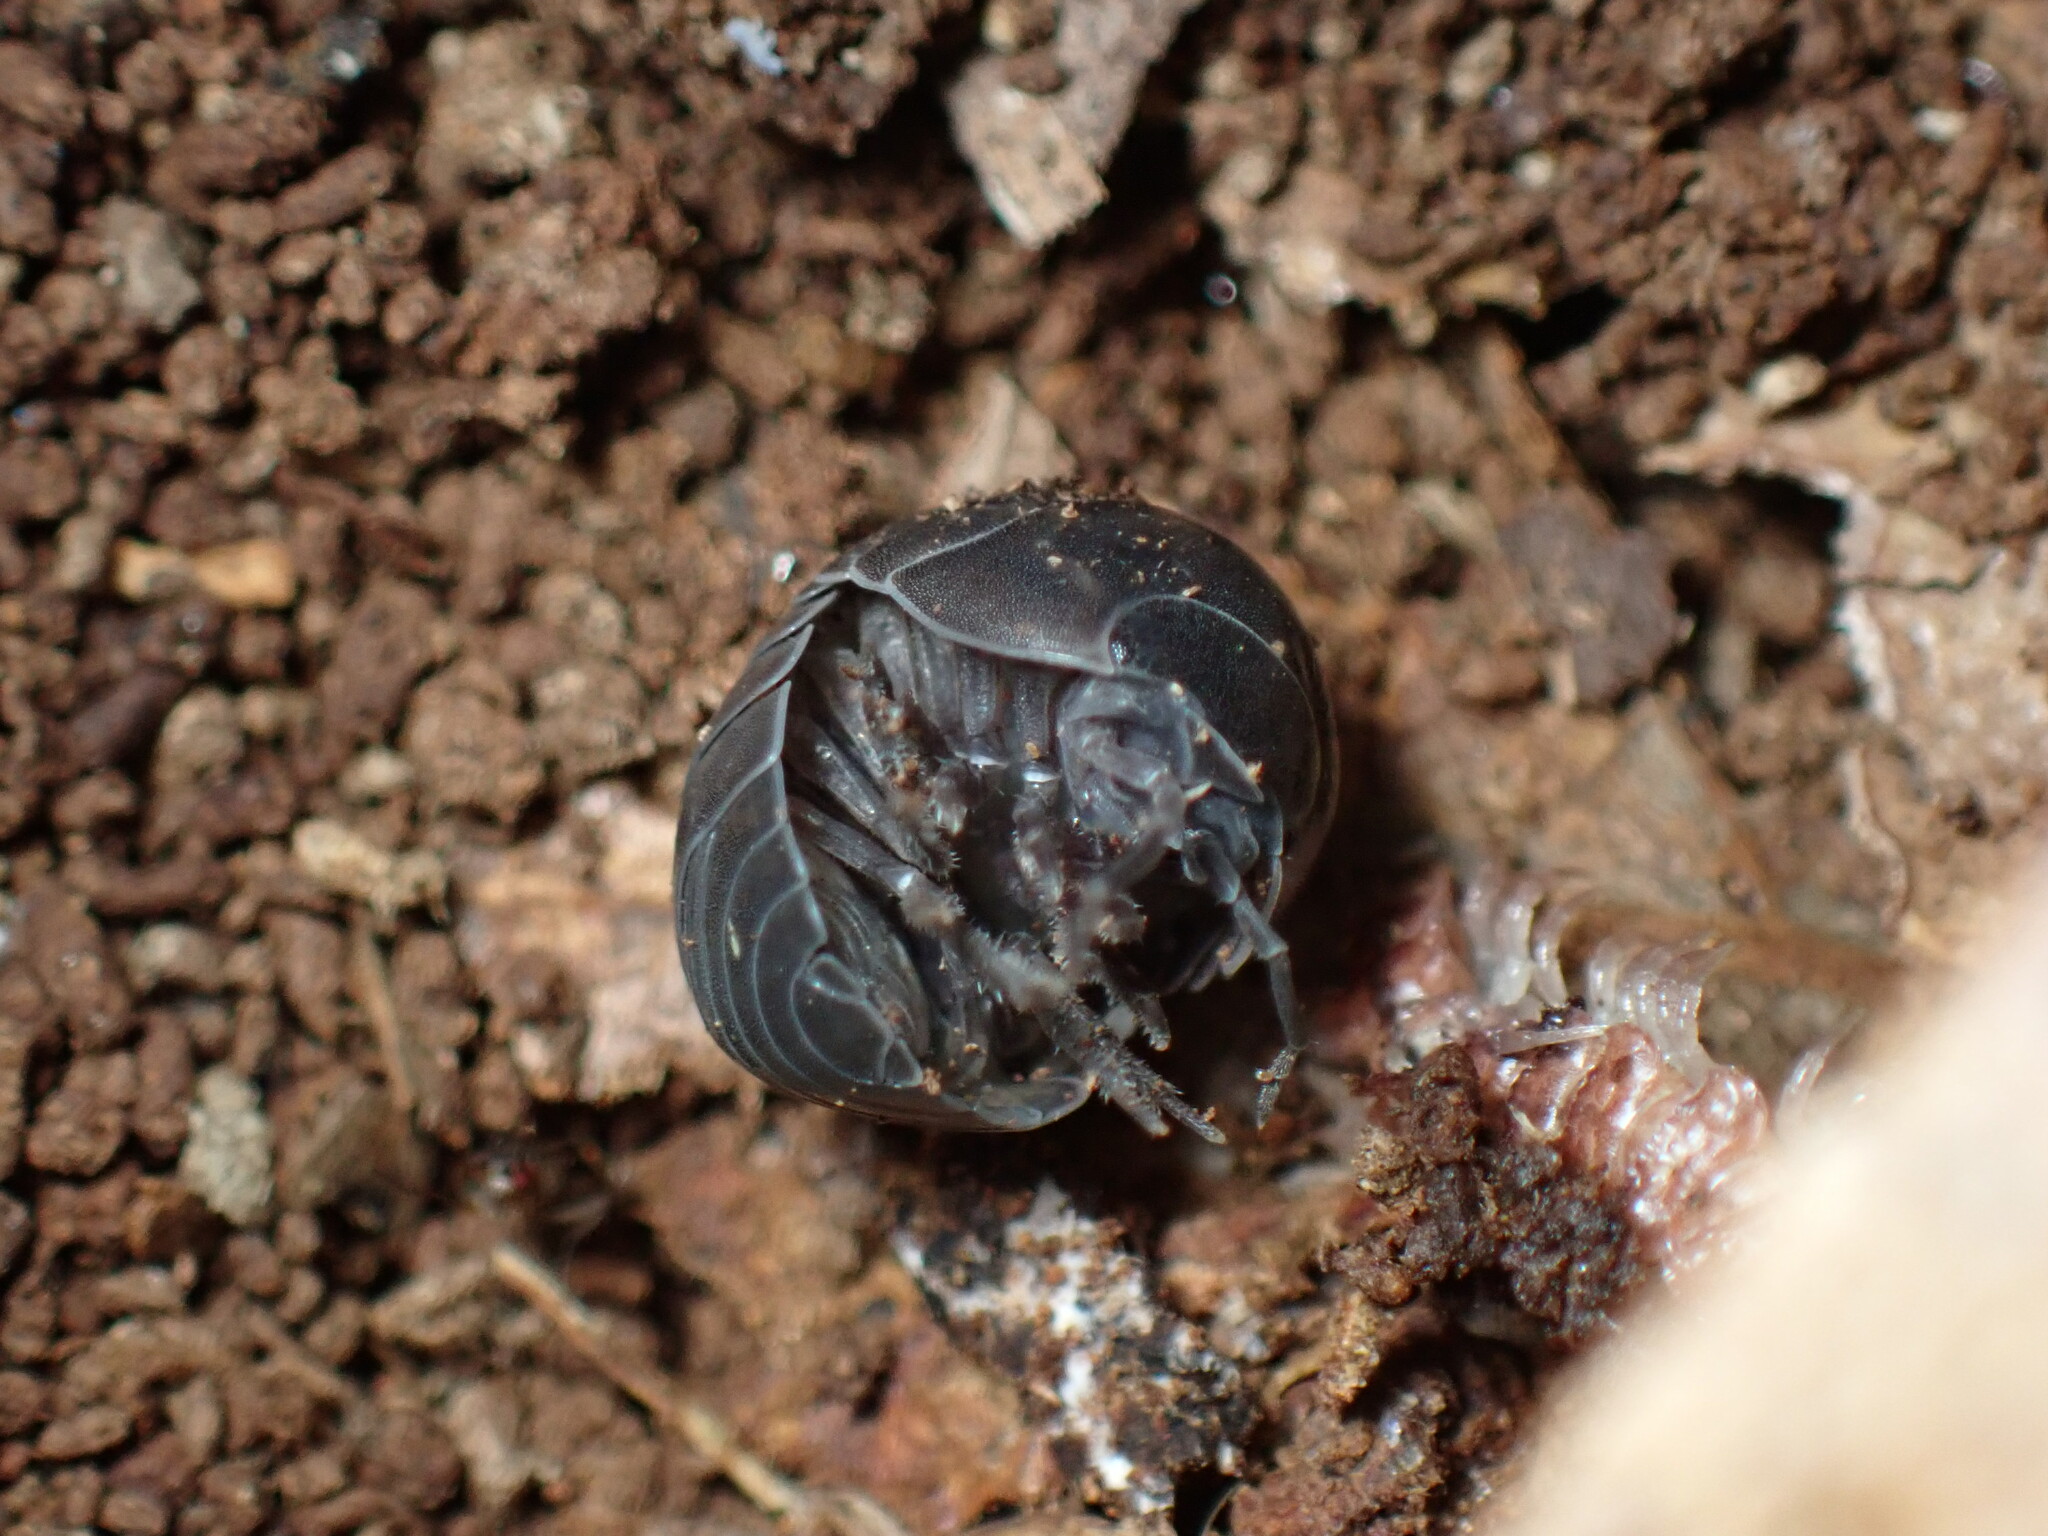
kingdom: Animalia
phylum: Arthropoda
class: Malacostraca
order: Isopoda
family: Armadillidiidae
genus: Armadillidium
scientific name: Armadillidium vulgare
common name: Common pill woodlouse
